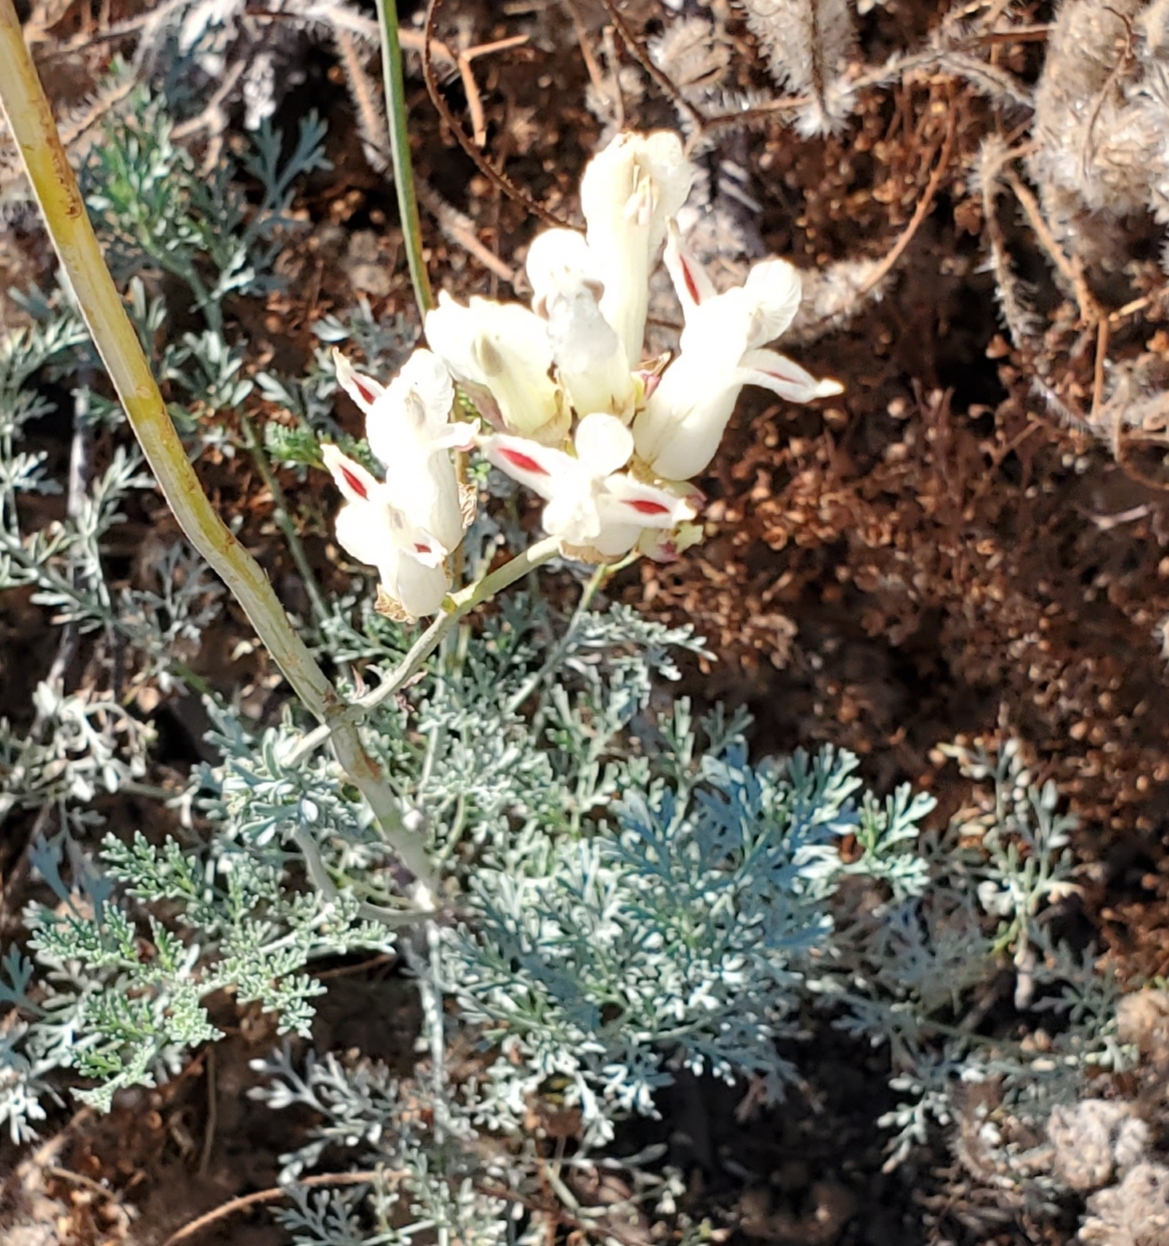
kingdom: Plantae
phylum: Tracheophyta
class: Magnoliopsida
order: Ranunculales
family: Papaveraceae
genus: Ehrendorferia
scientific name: Ehrendorferia ochroleuca
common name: White eardrops
